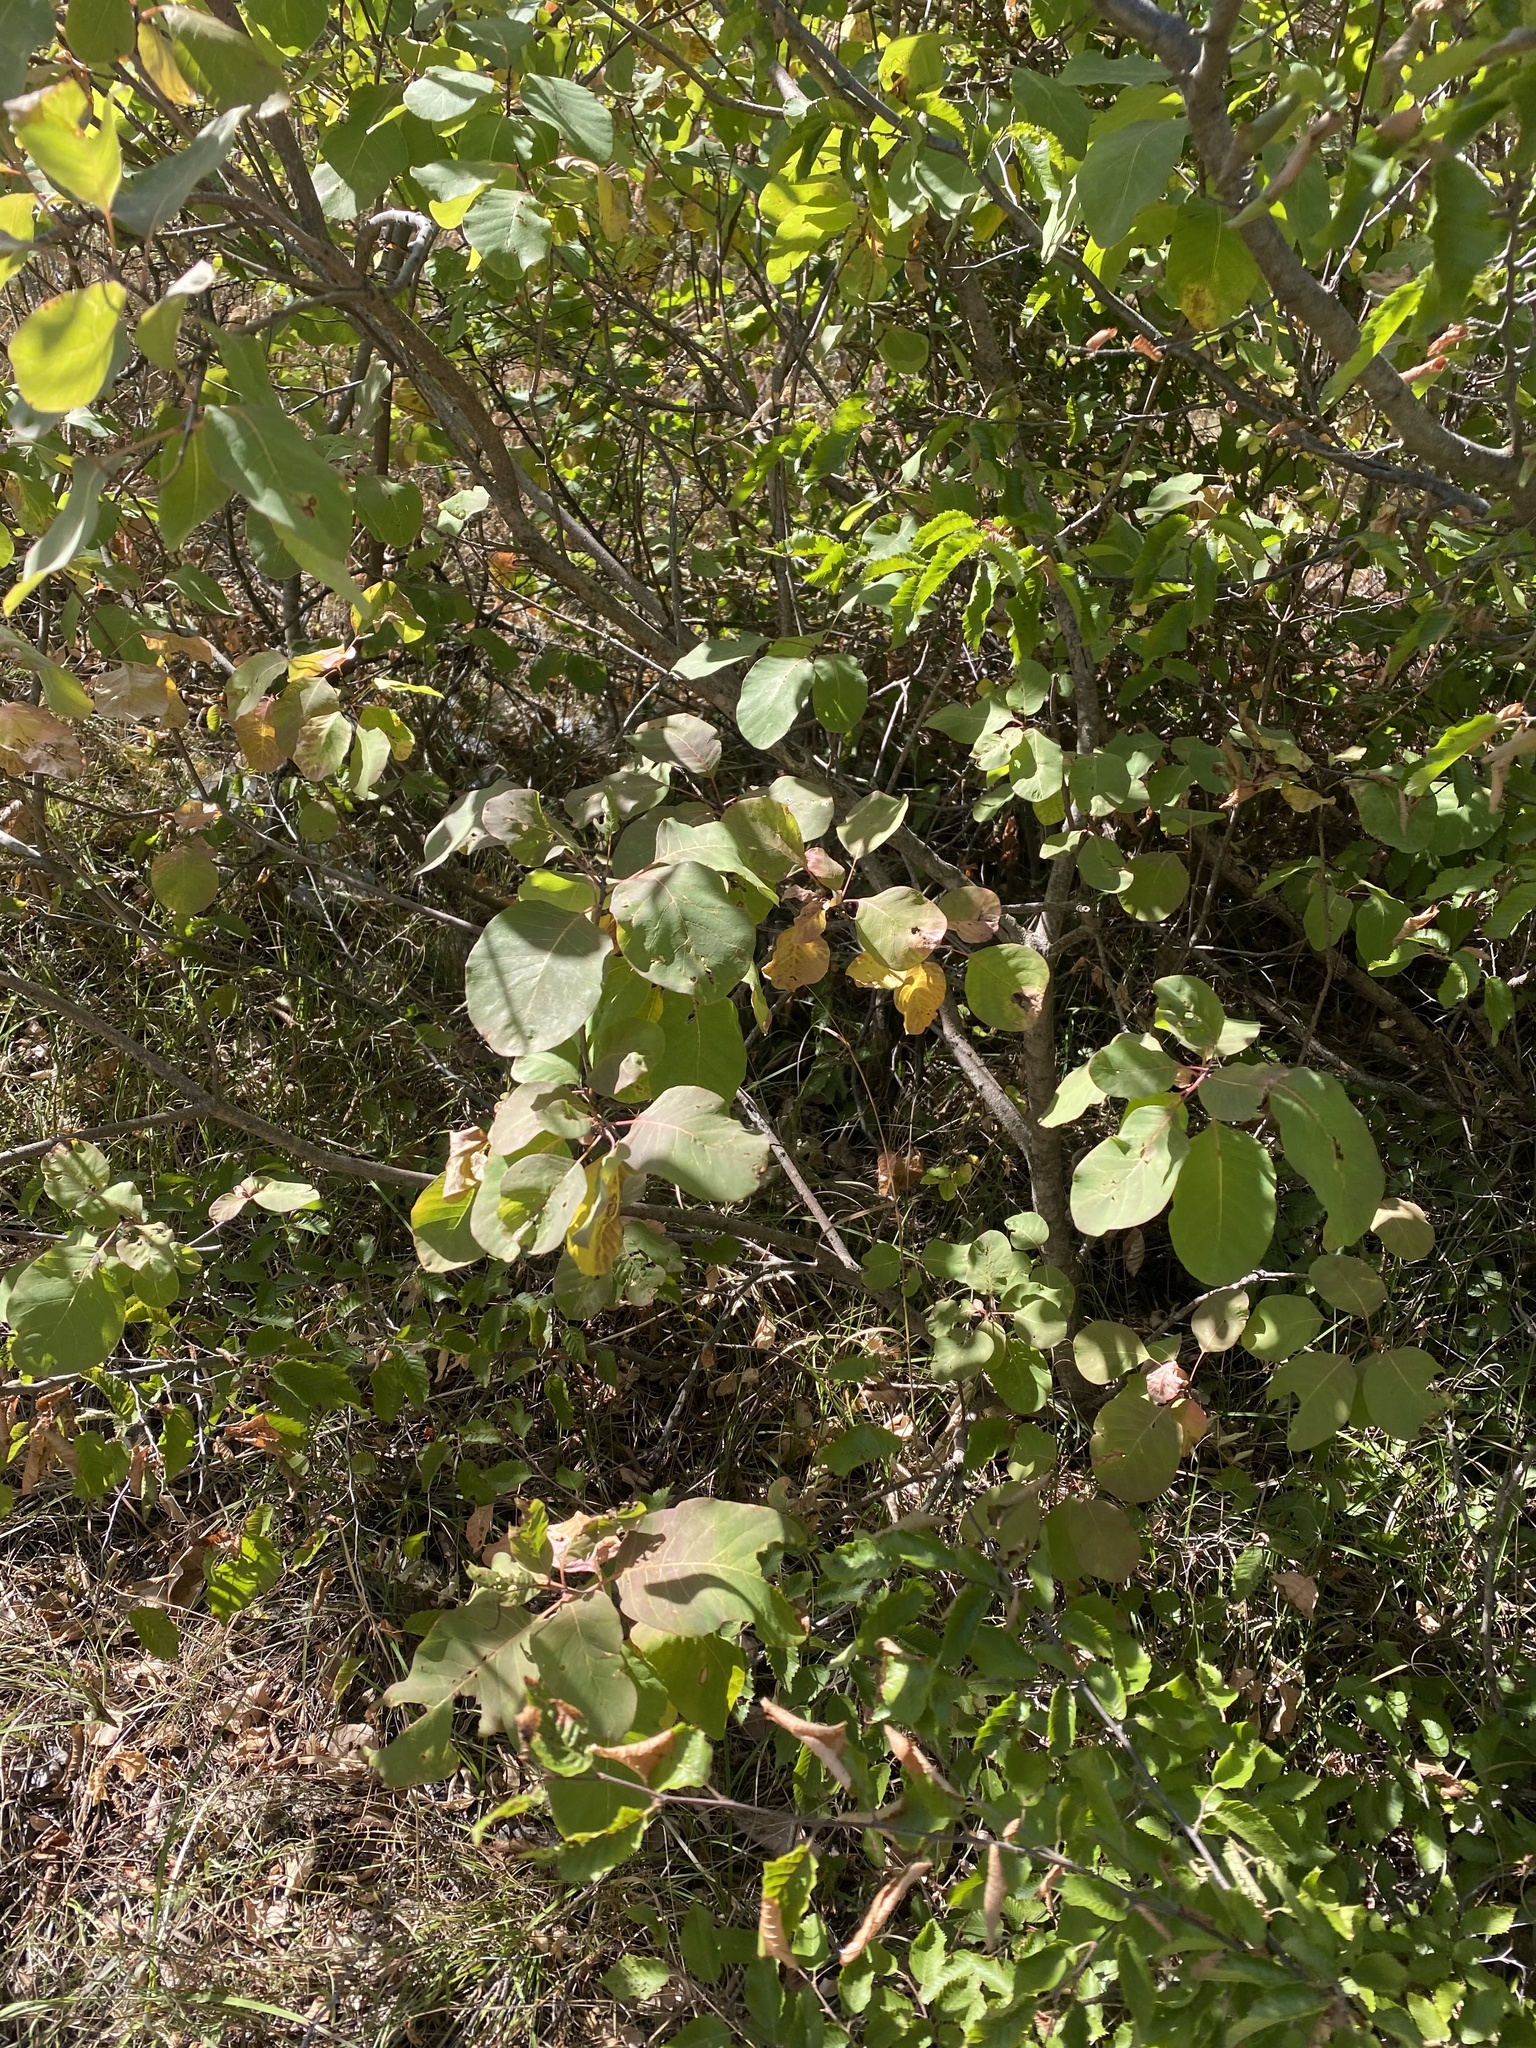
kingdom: Plantae
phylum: Tracheophyta
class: Magnoliopsida
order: Sapindales
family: Anacardiaceae
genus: Cotinus
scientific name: Cotinus coggygria
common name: Smoke-tree
